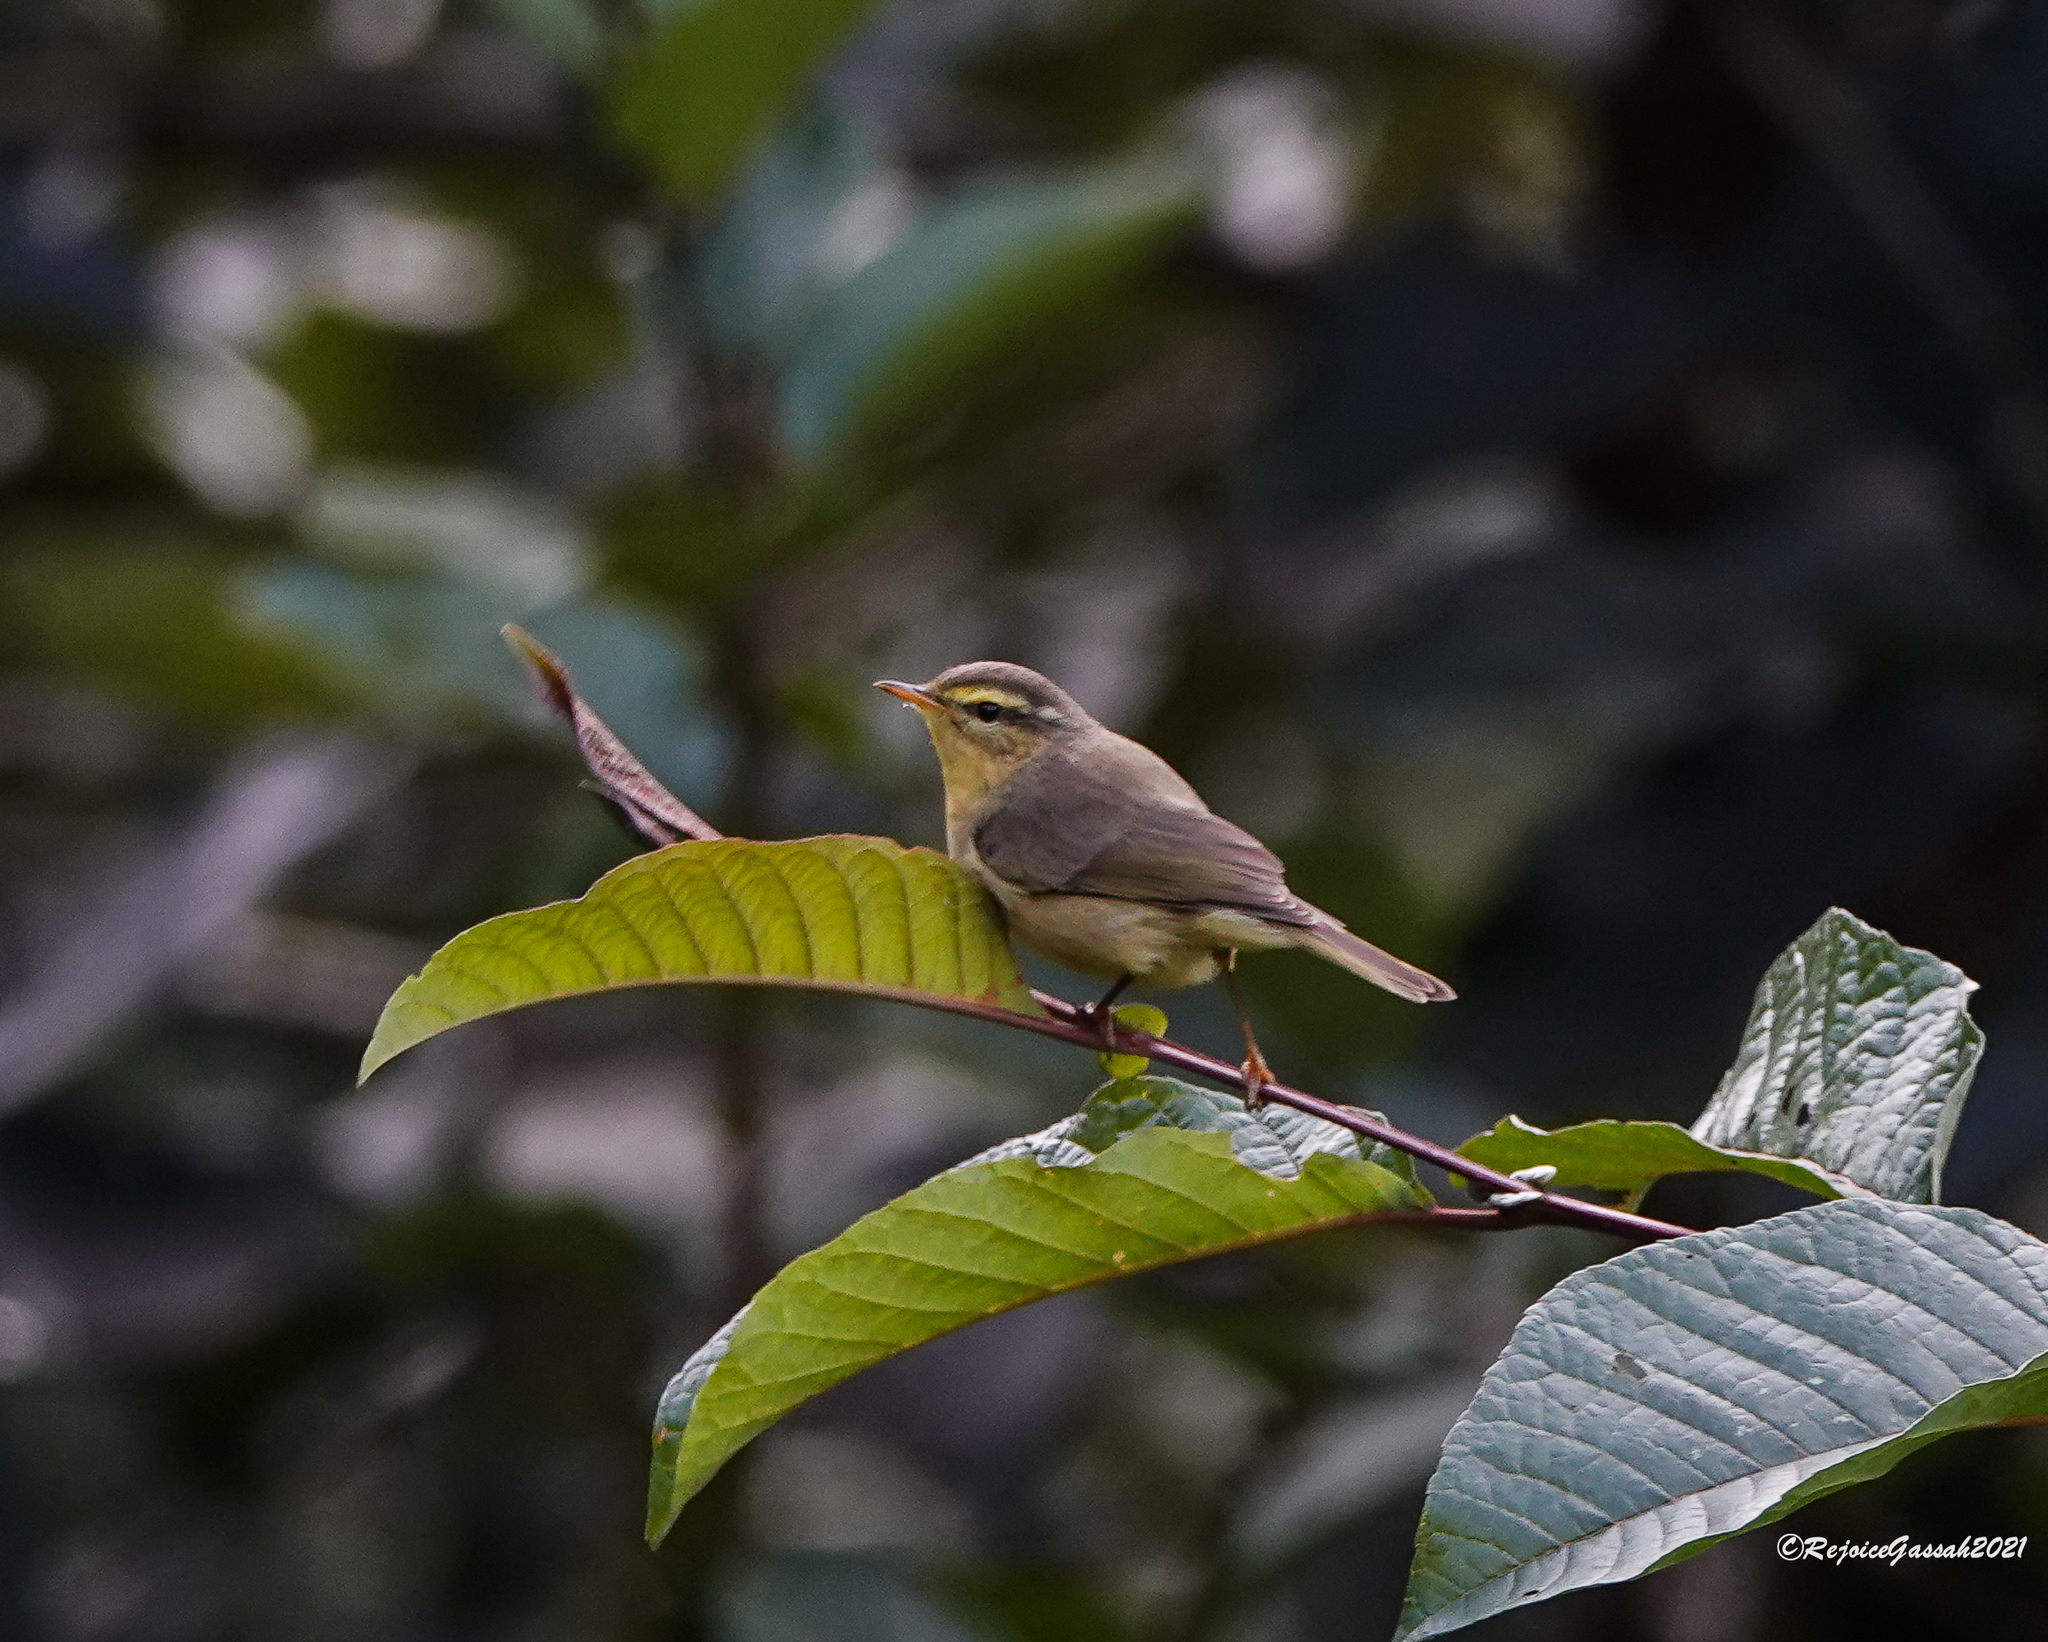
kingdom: Animalia
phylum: Chordata
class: Aves
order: Passeriformes
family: Phylloscopidae
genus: Phylloscopus
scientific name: Phylloscopus affinis
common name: Tickell's leaf warbler
